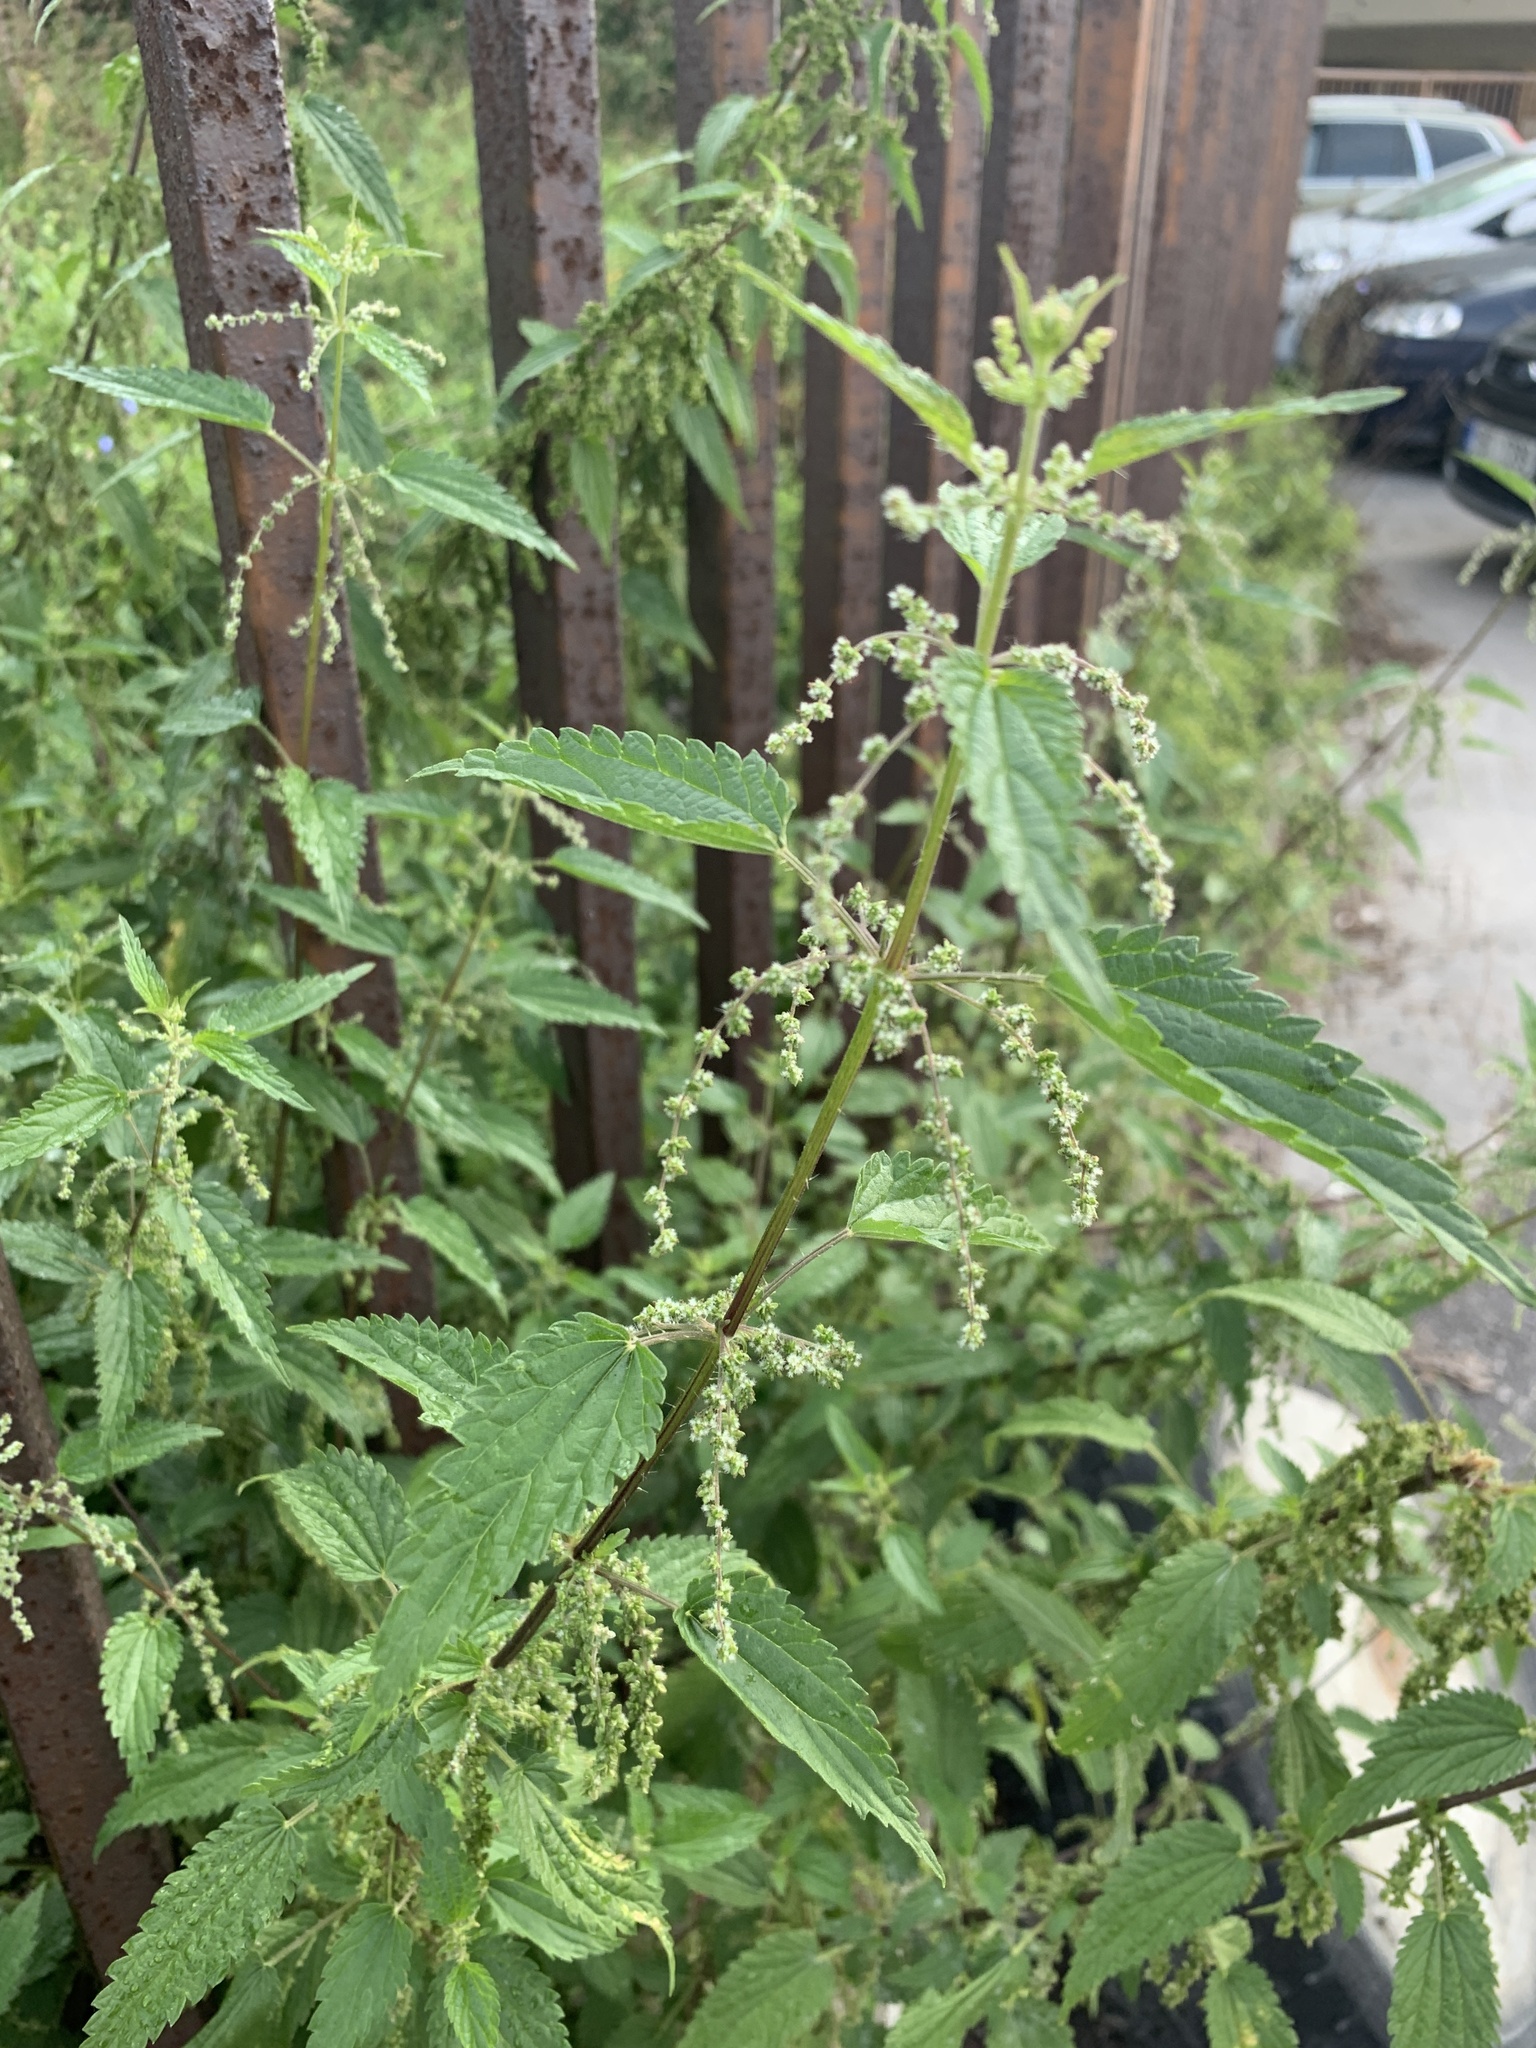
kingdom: Plantae
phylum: Tracheophyta
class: Magnoliopsida
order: Rosales
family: Urticaceae
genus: Urtica
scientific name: Urtica dioica
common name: Common nettle
